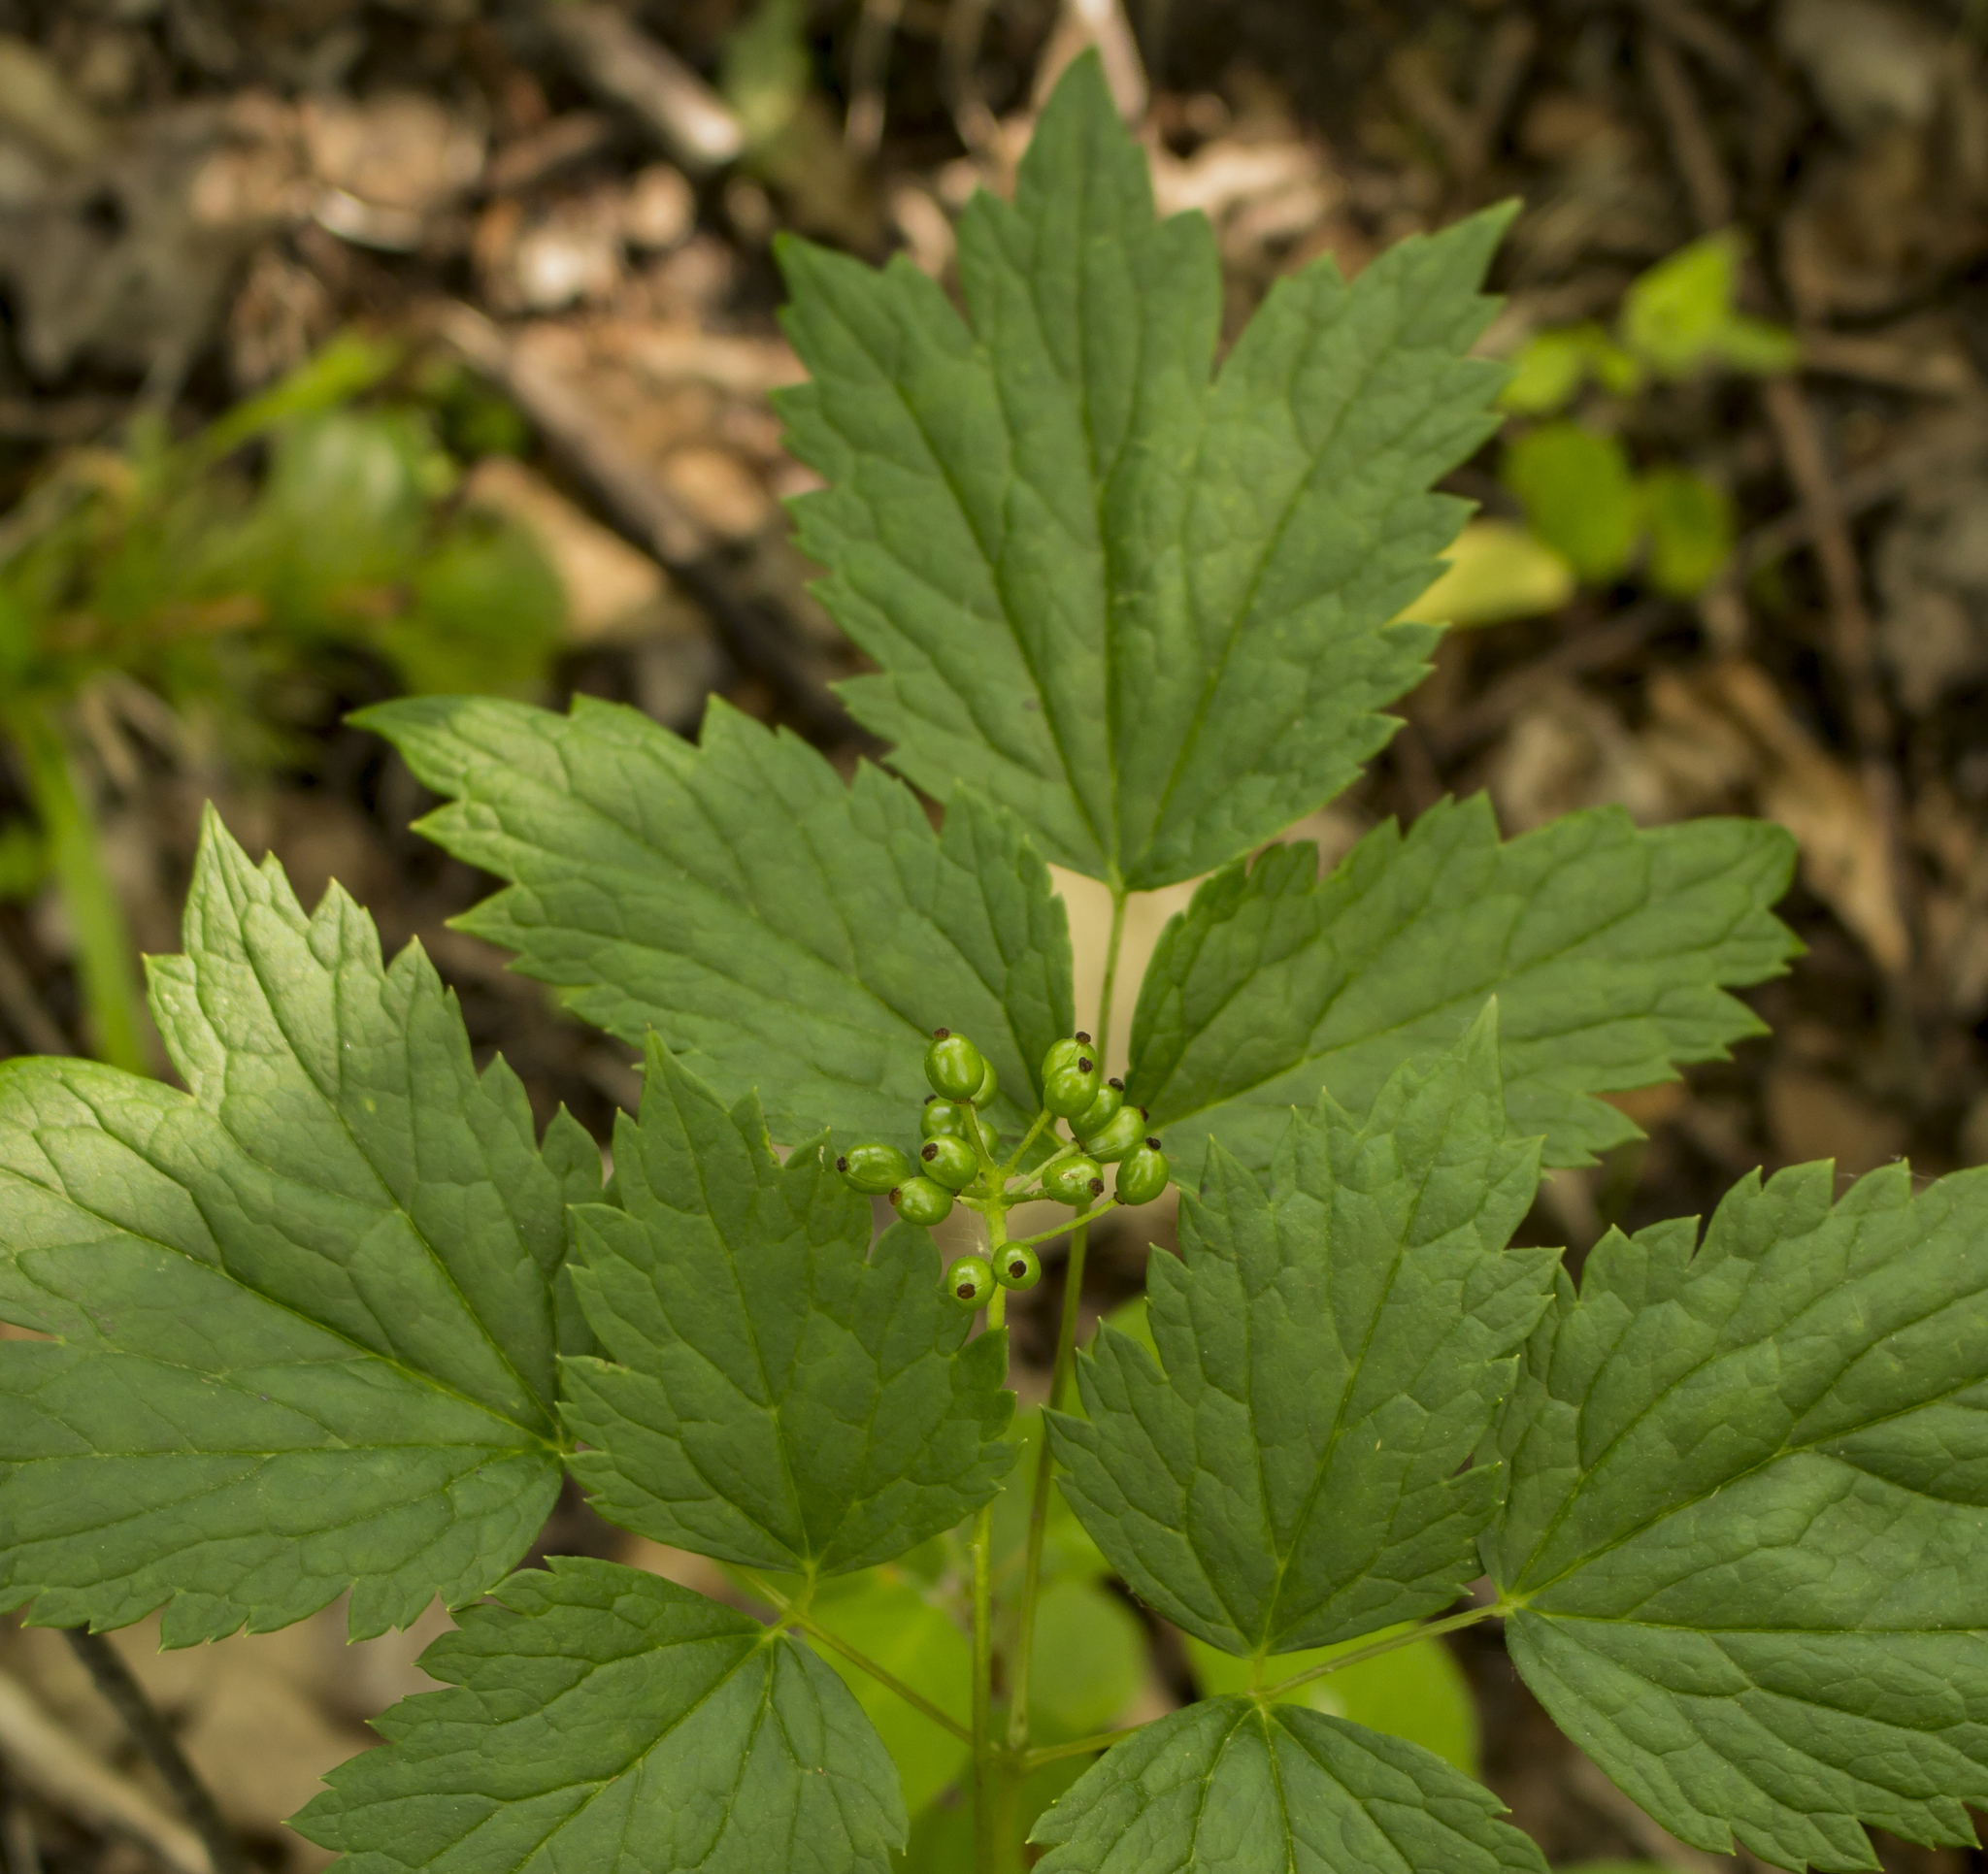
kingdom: Plantae
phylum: Tracheophyta
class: Magnoliopsida
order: Ranunculales
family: Ranunculaceae
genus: Actaea
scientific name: Actaea rubra
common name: Red baneberry
